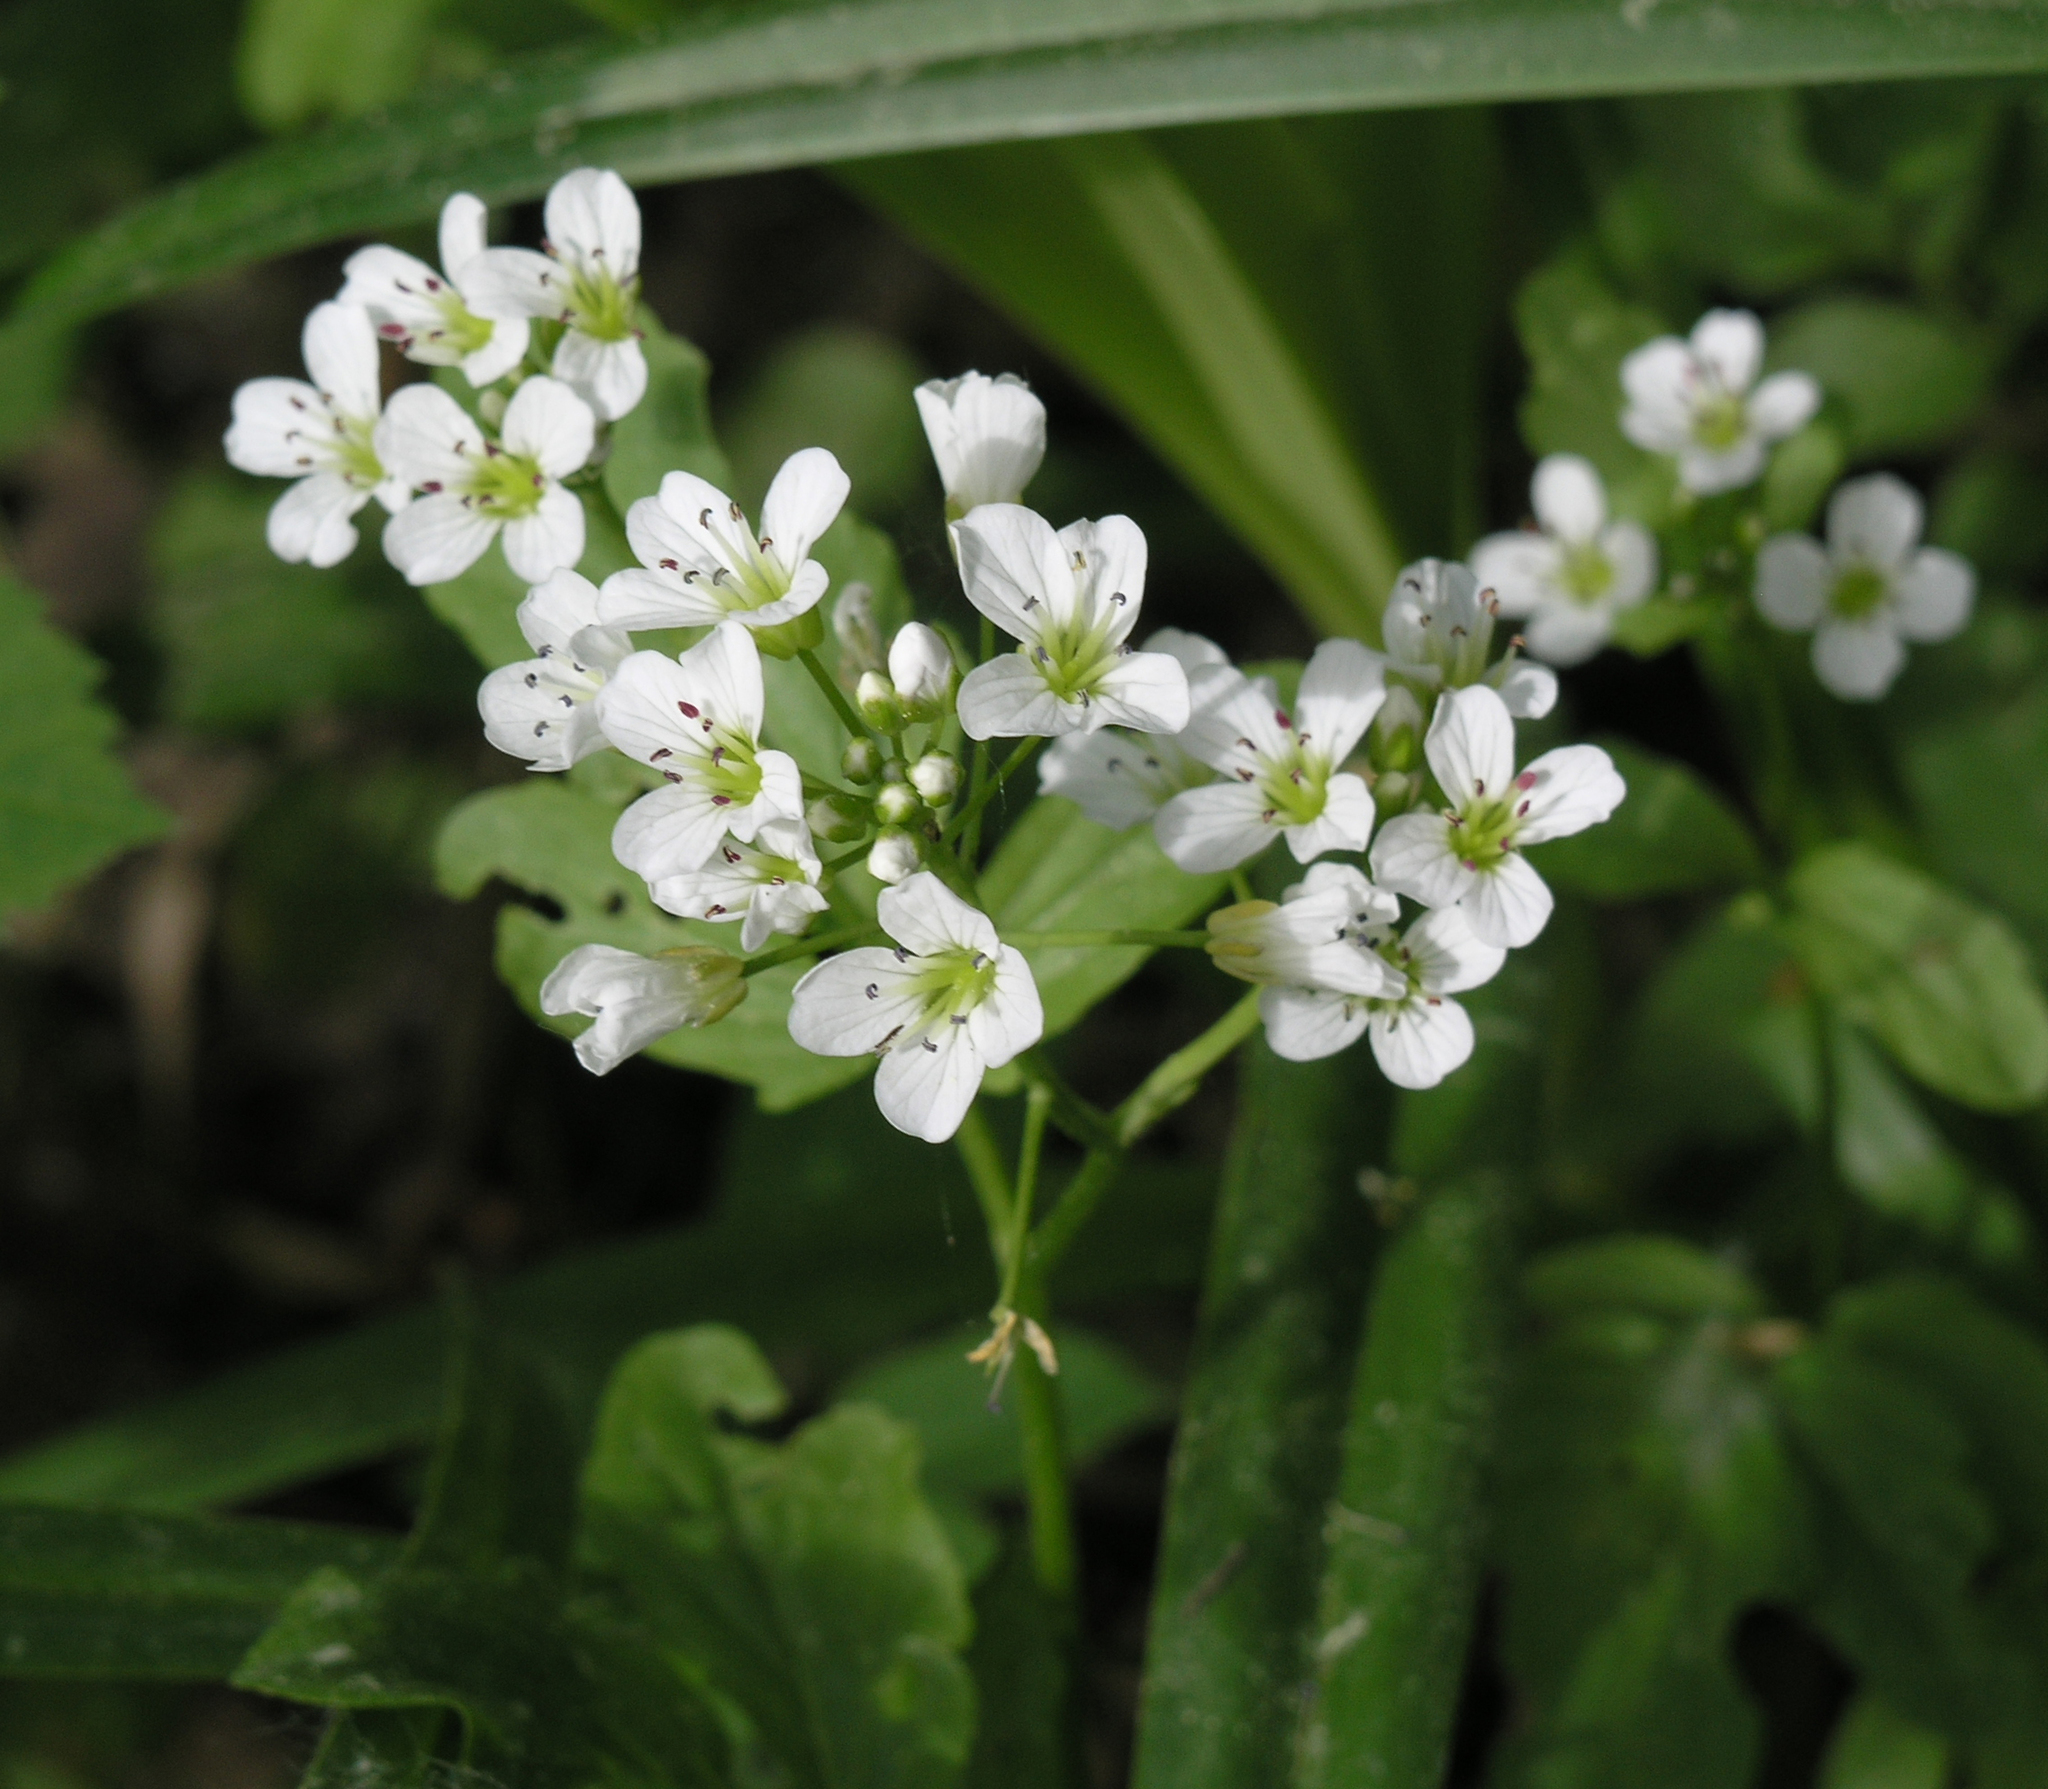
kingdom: Plantae
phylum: Tracheophyta
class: Magnoliopsida
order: Brassicales
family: Brassicaceae
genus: Cardamine
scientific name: Cardamine amara
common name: Large bitter-cress
